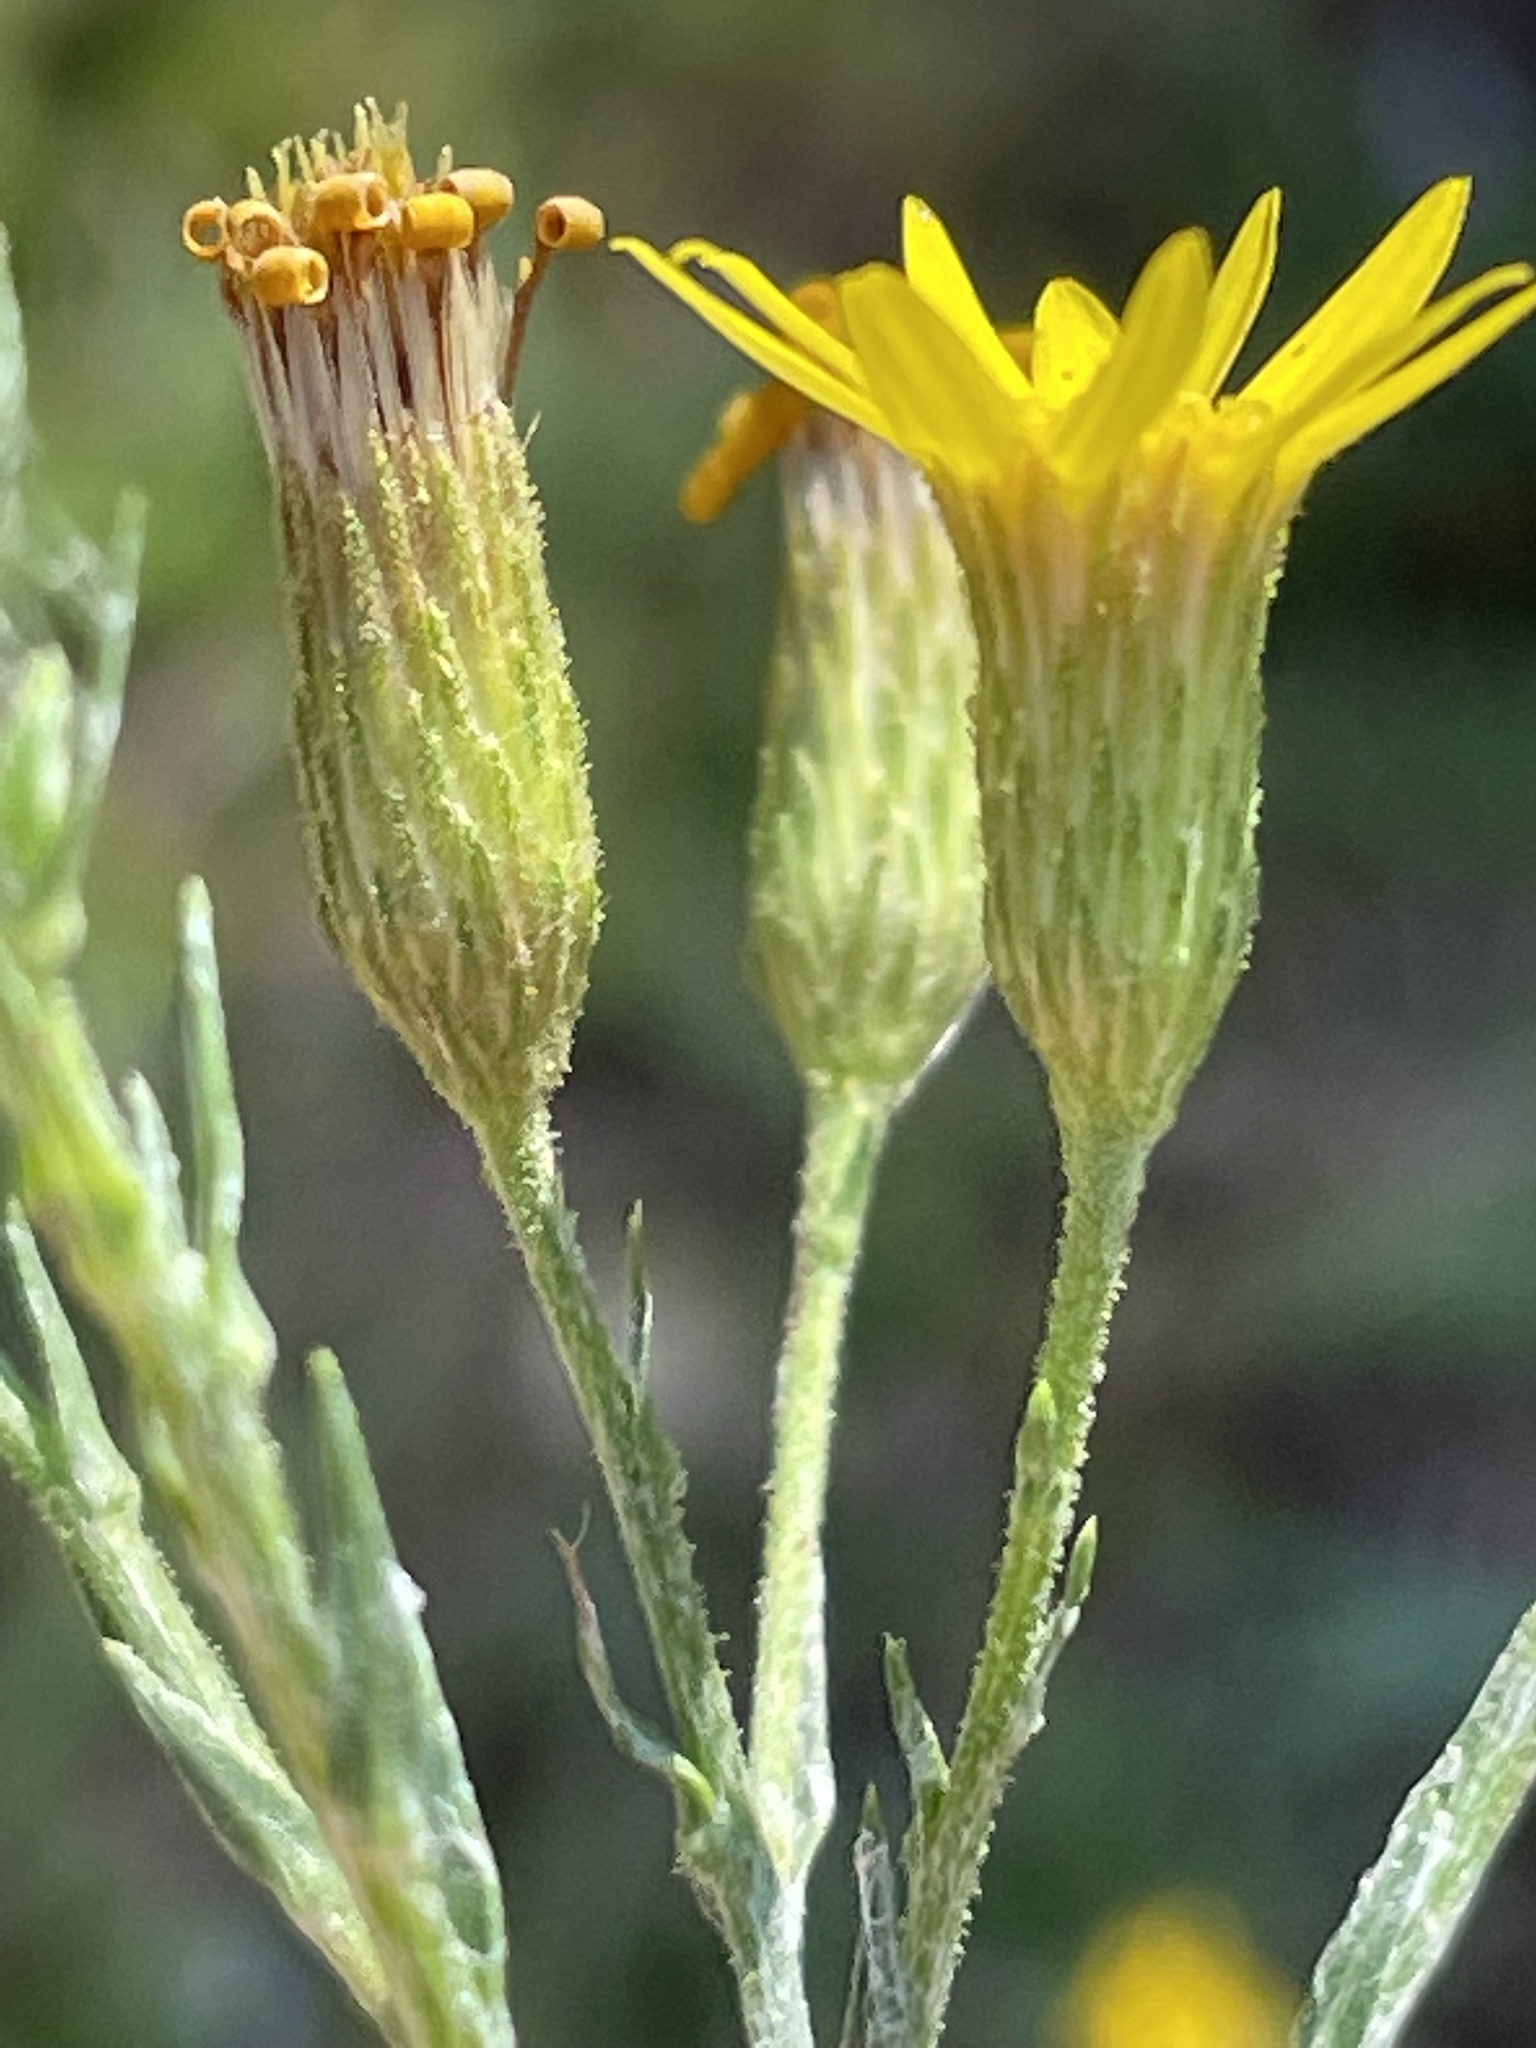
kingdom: Plantae
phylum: Tracheophyta
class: Magnoliopsida
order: Asterales
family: Asteraceae
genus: Pityopsis
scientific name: Pityopsis aspera
